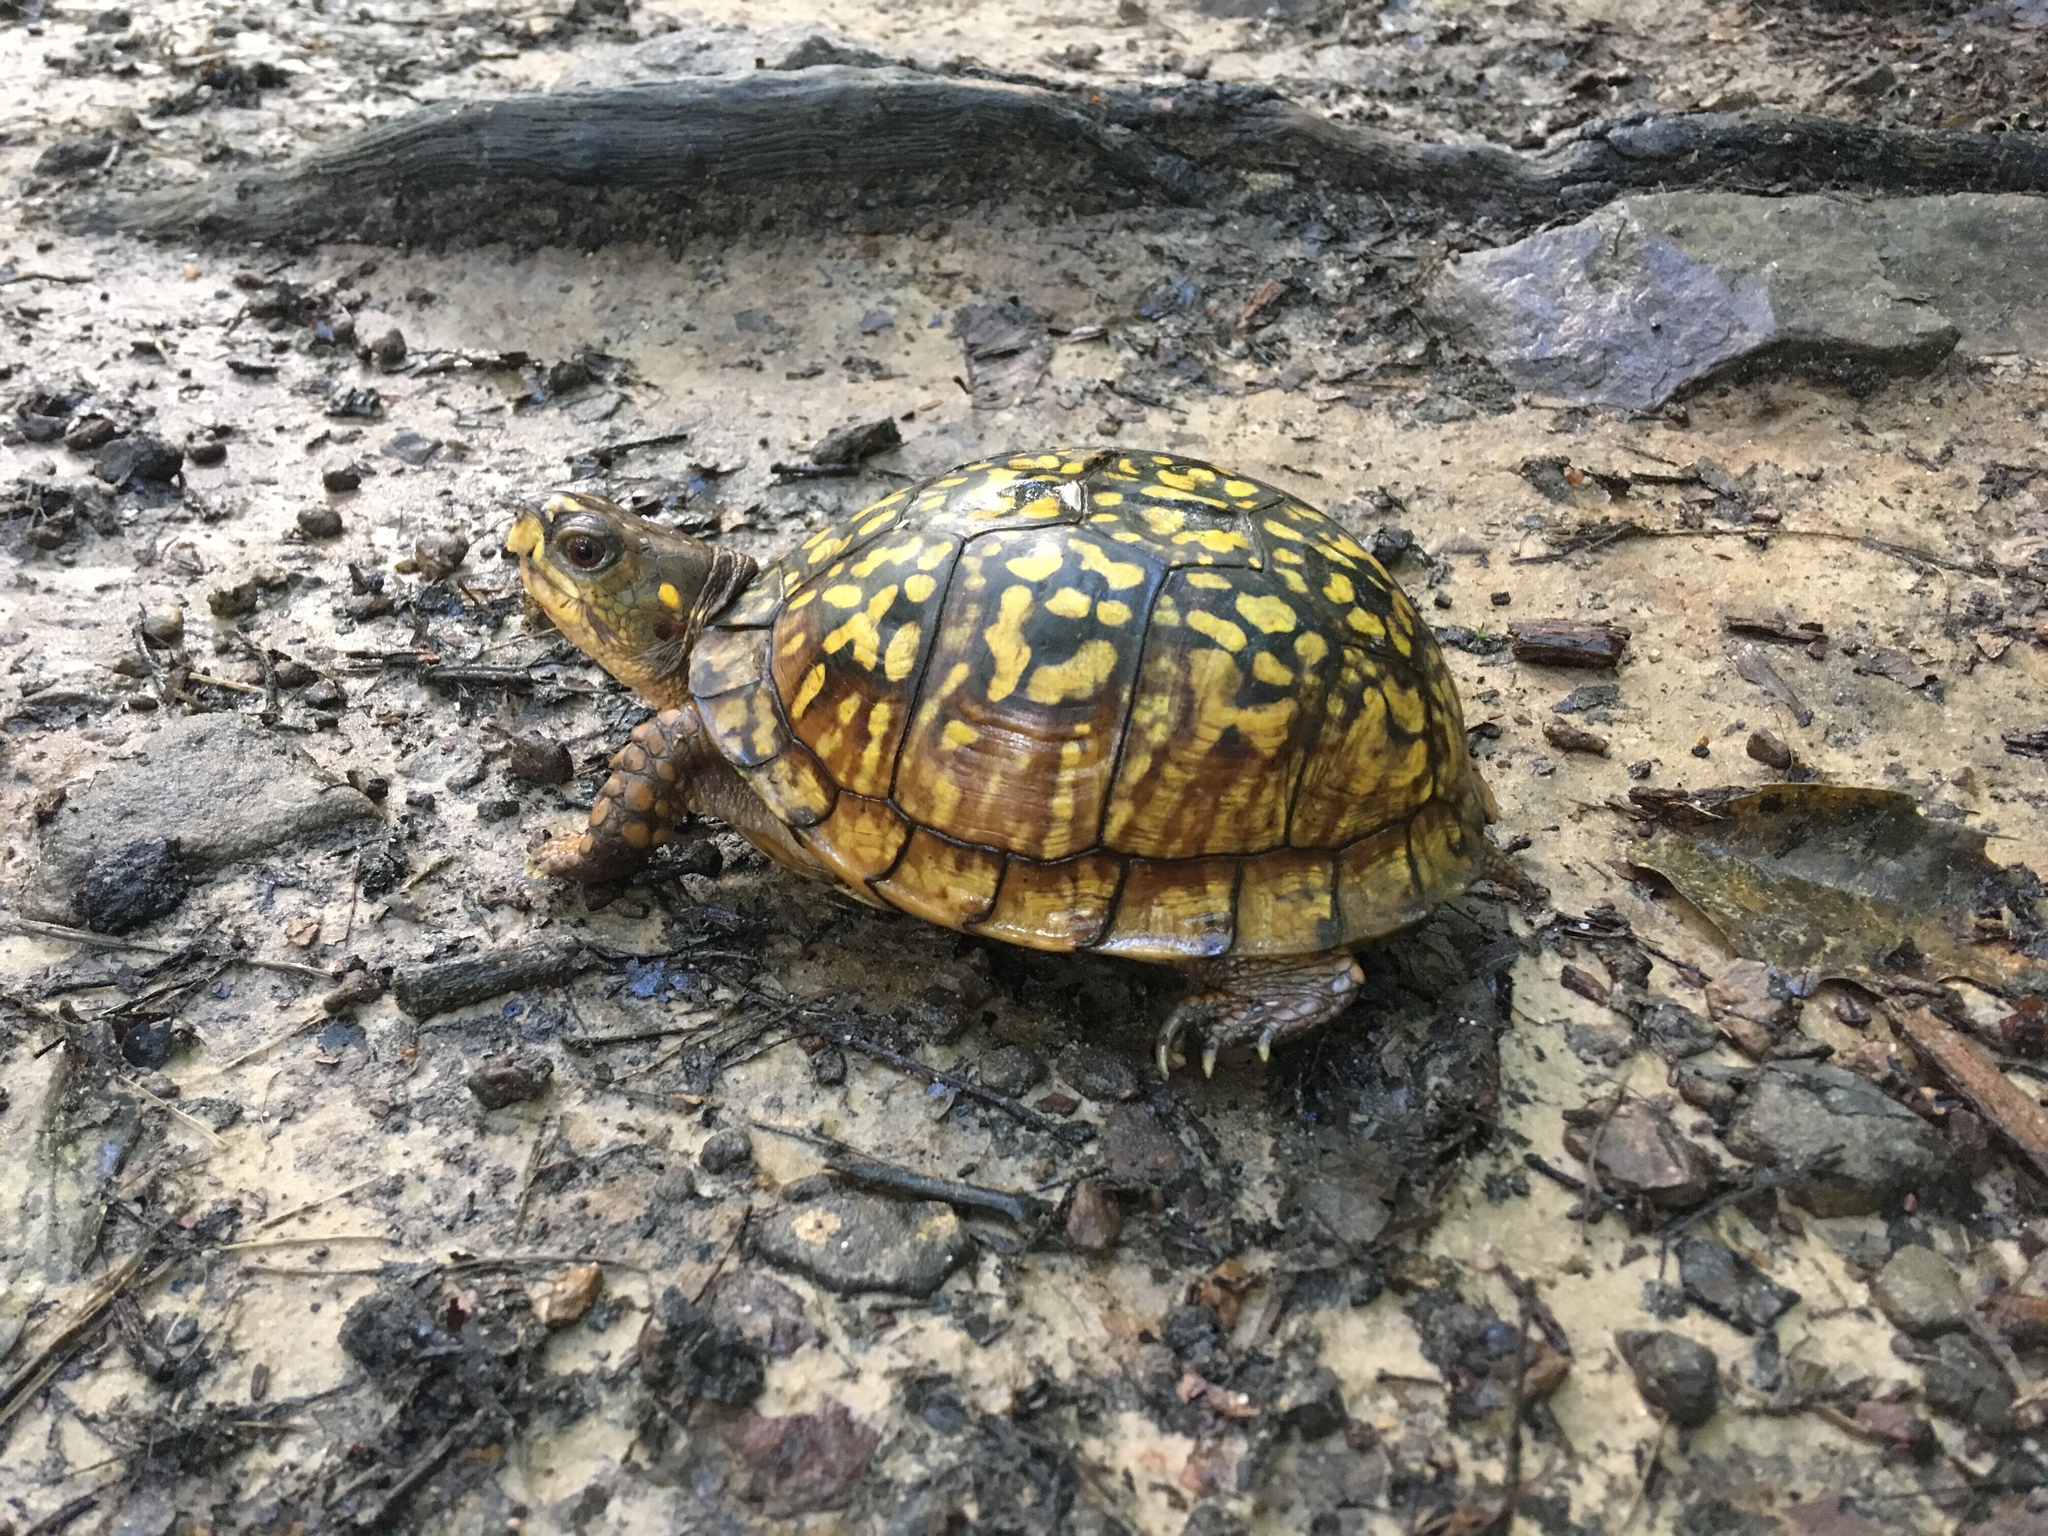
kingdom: Animalia
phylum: Chordata
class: Testudines
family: Emydidae
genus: Terrapene
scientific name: Terrapene carolina
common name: Common box turtle
